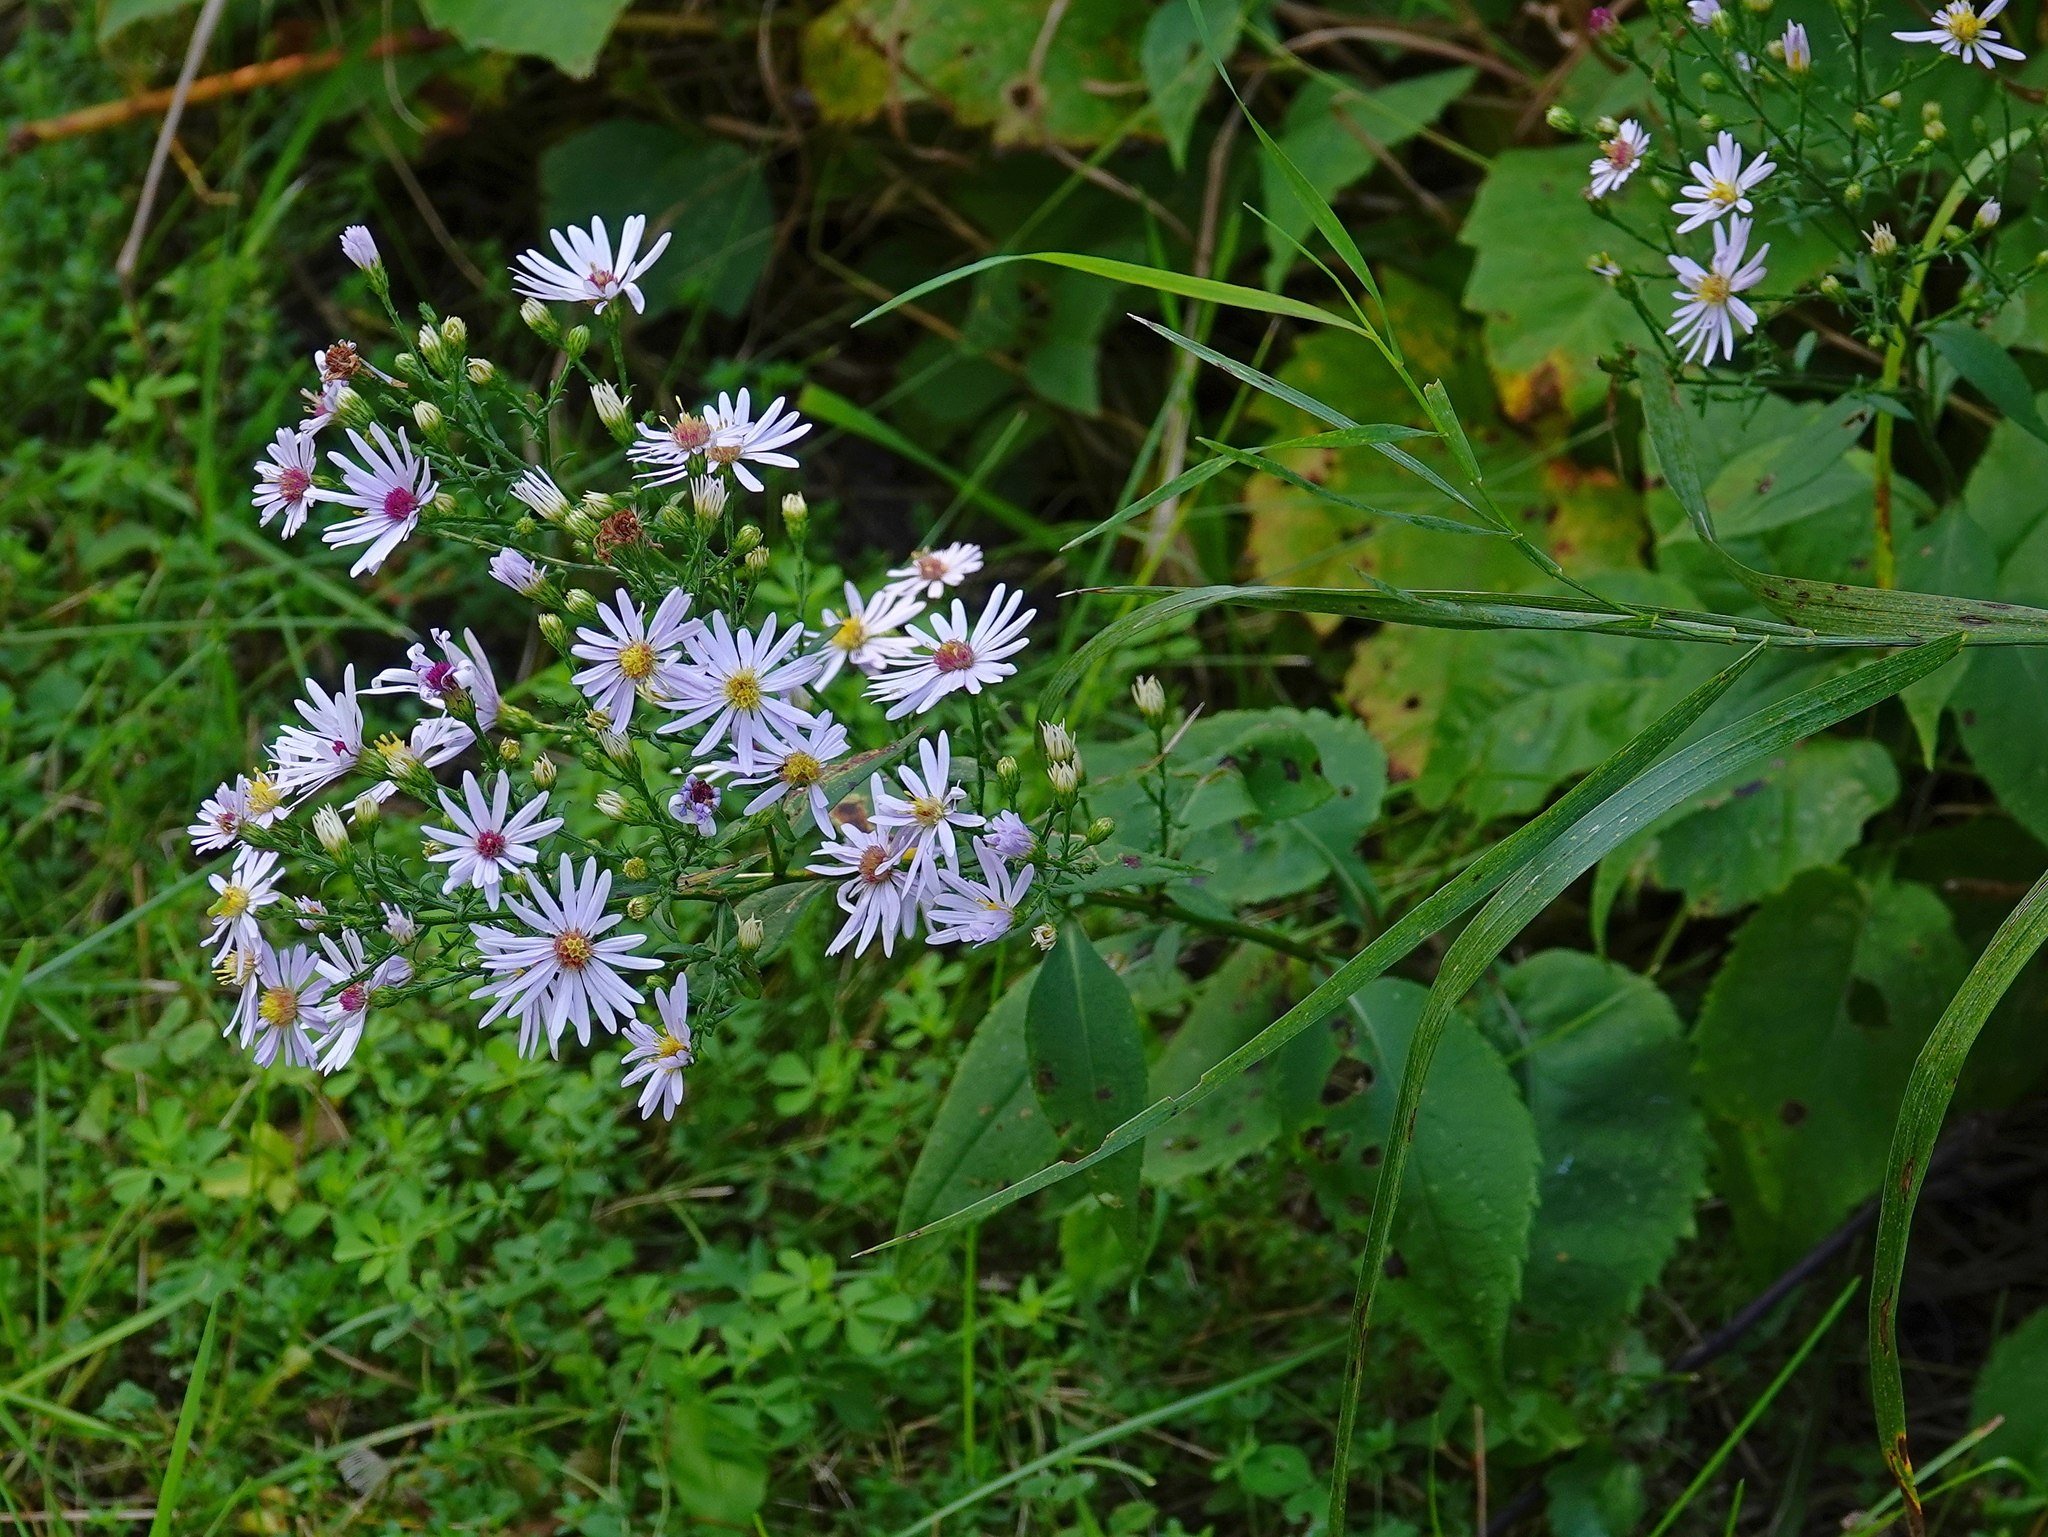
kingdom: Plantae
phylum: Tracheophyta
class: Magnoliopsida
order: Asterales
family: Asteraceae
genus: Symphyotrichum
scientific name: Symphyotrichum ciliolatum
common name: Fringed blue aster
